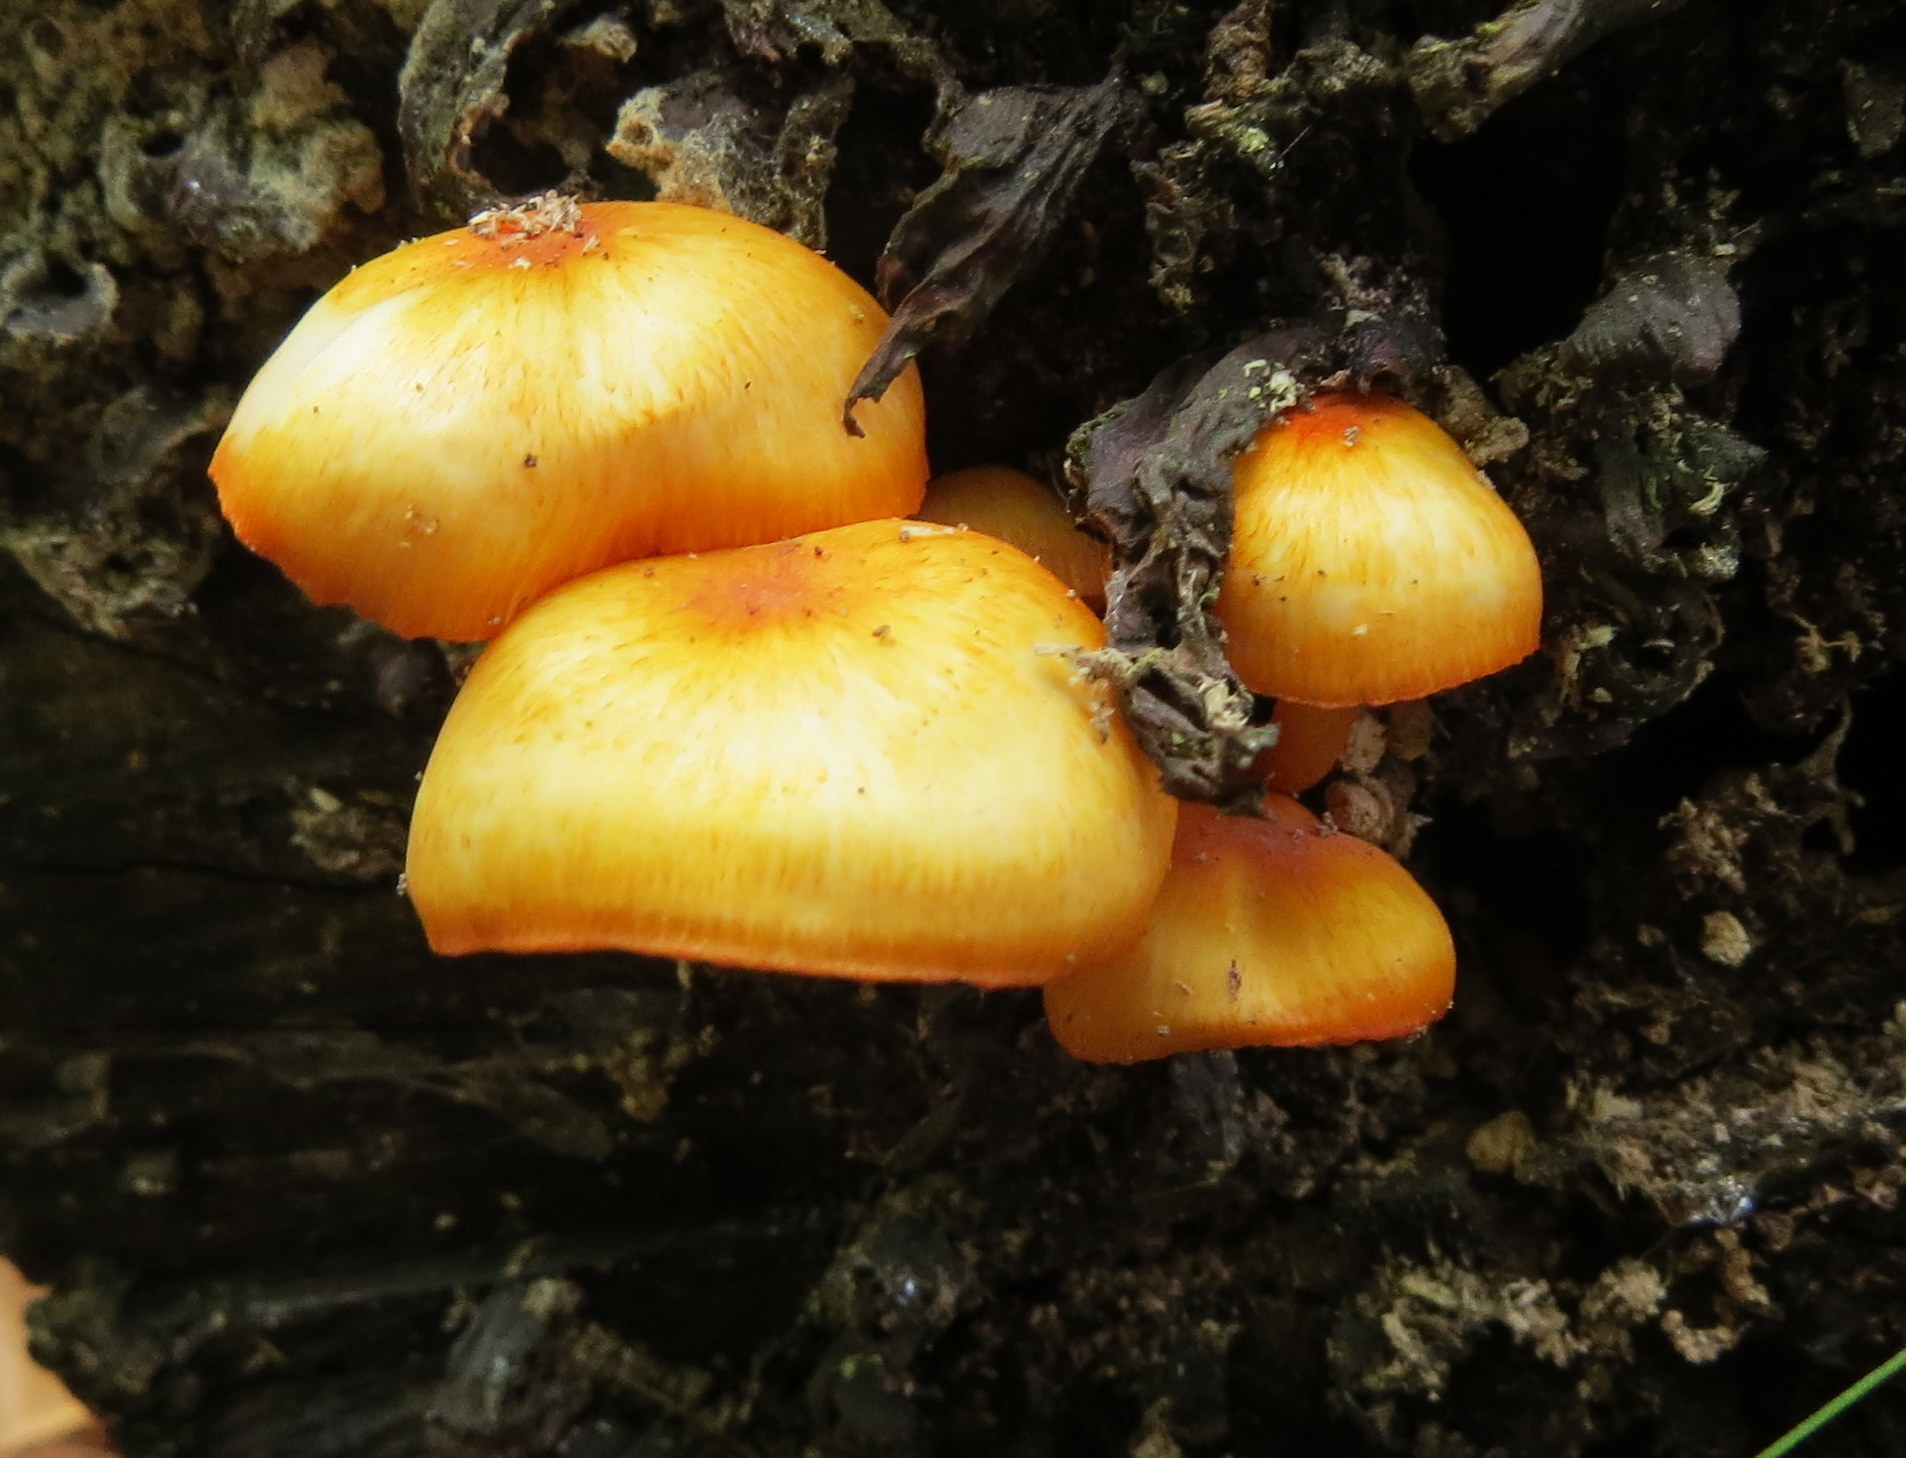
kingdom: Fungi
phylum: Basidiomycota
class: Agaricomycetes
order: Agaricales
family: Mycenaceae
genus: Mycena
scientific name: Mycena leaiana
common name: Orange mycena
